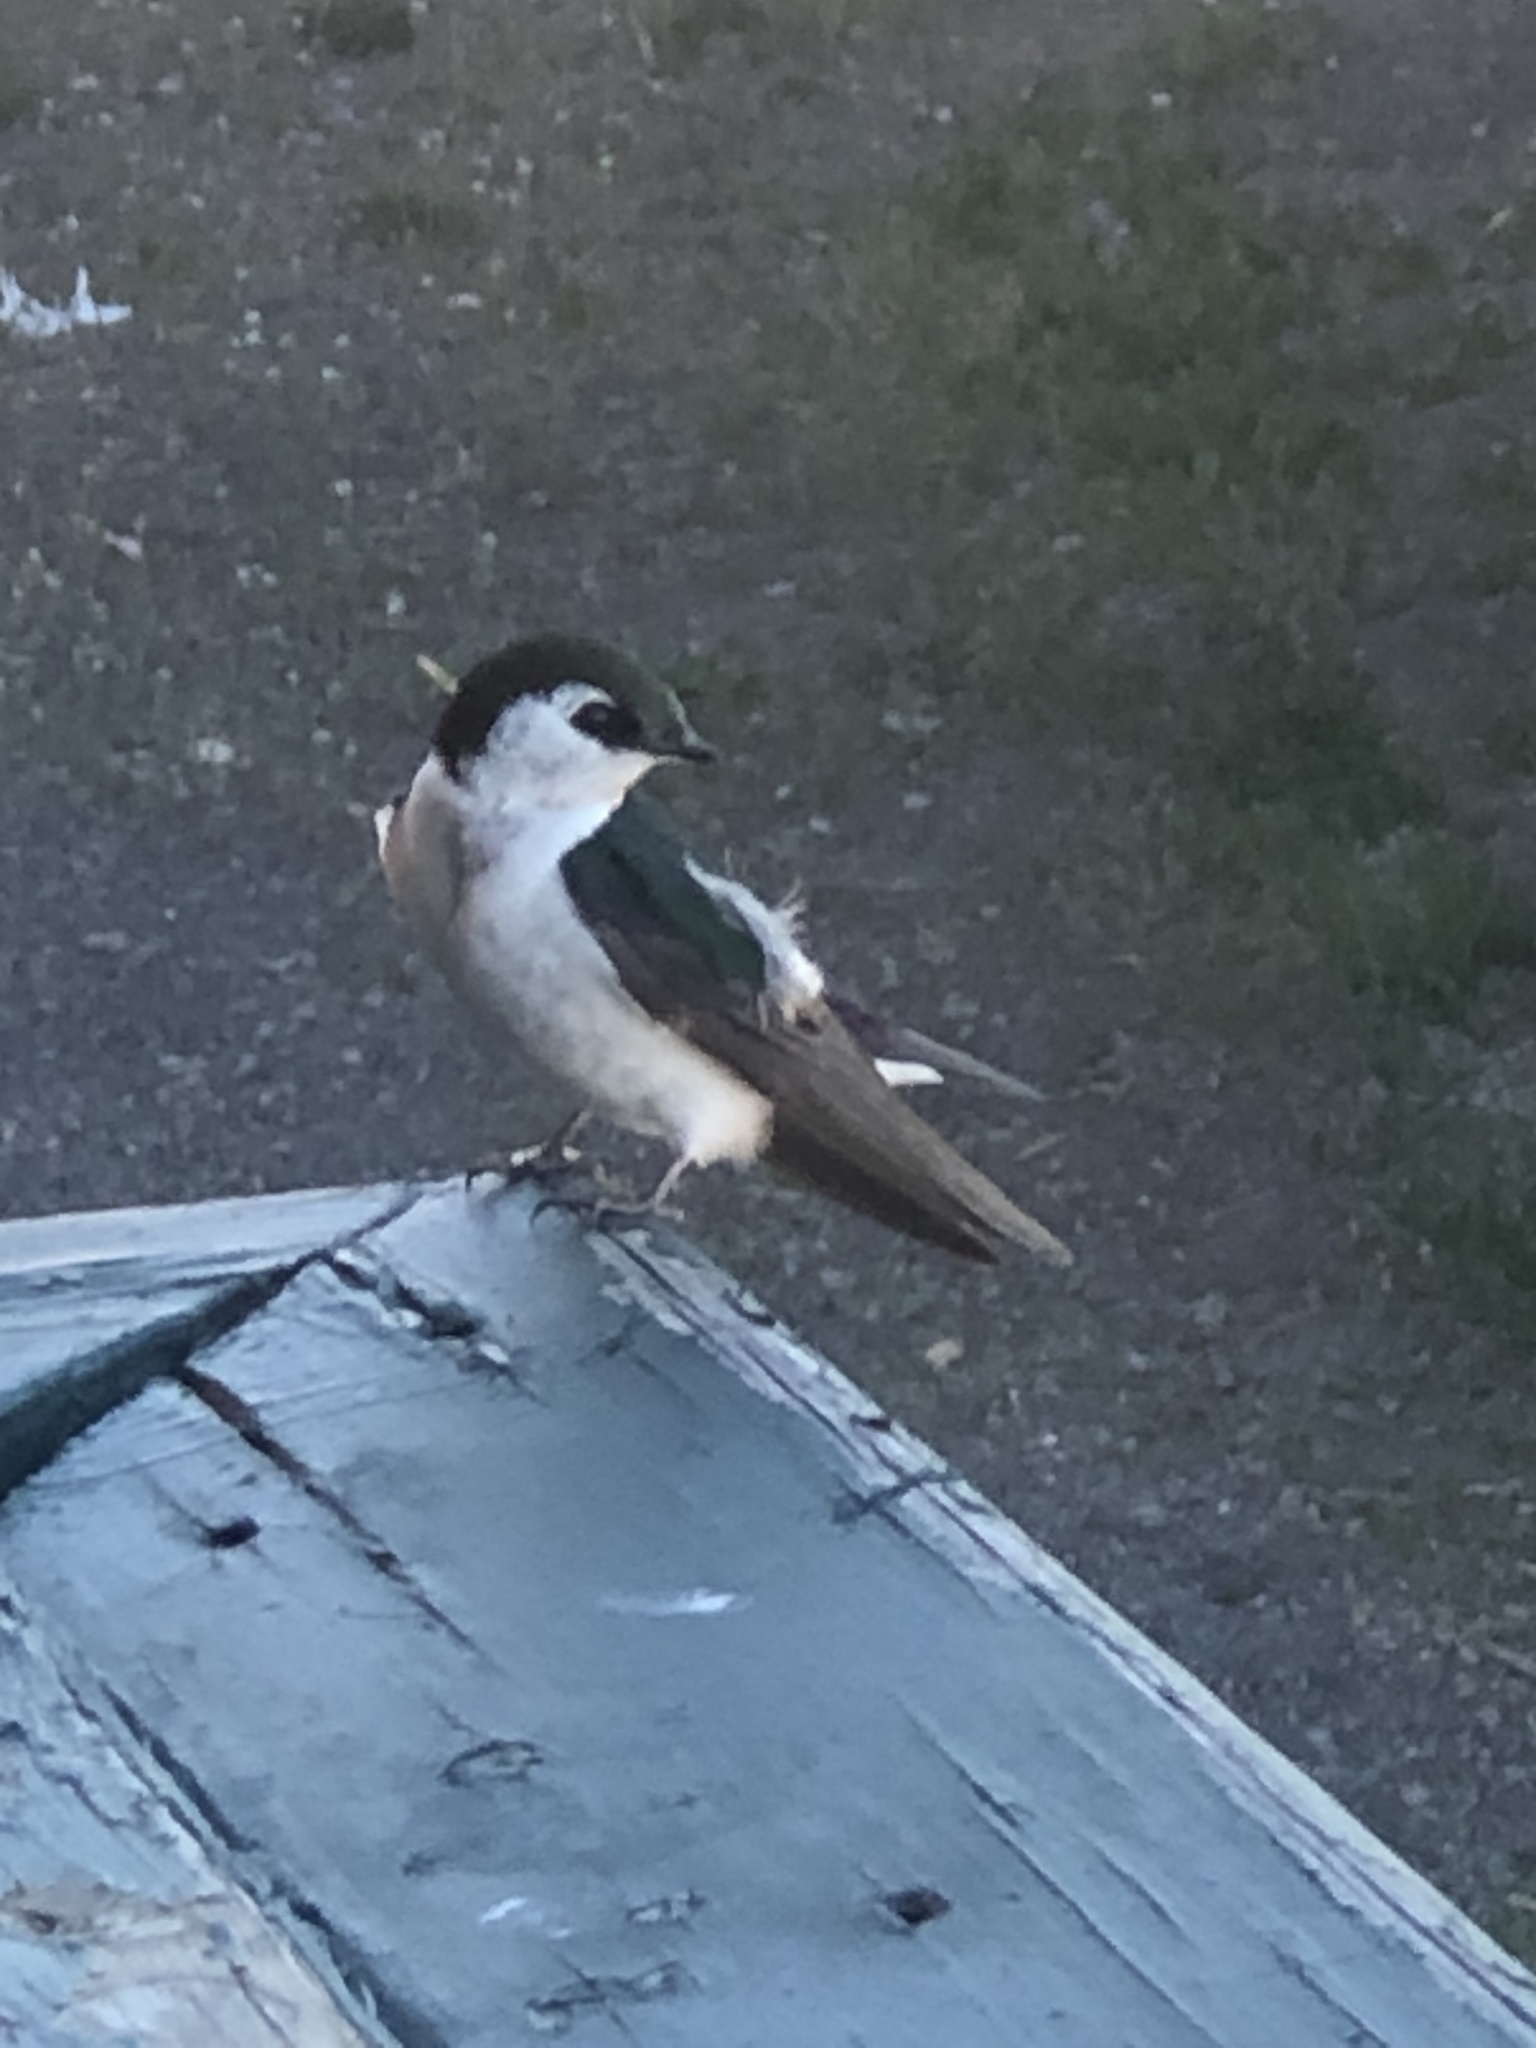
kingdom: Animalia
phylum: Chordata
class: Aves
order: Passeriformes
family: Hirundinidae
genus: Tachycineta
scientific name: Tachycineta thalassina
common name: Violet-green swallow
